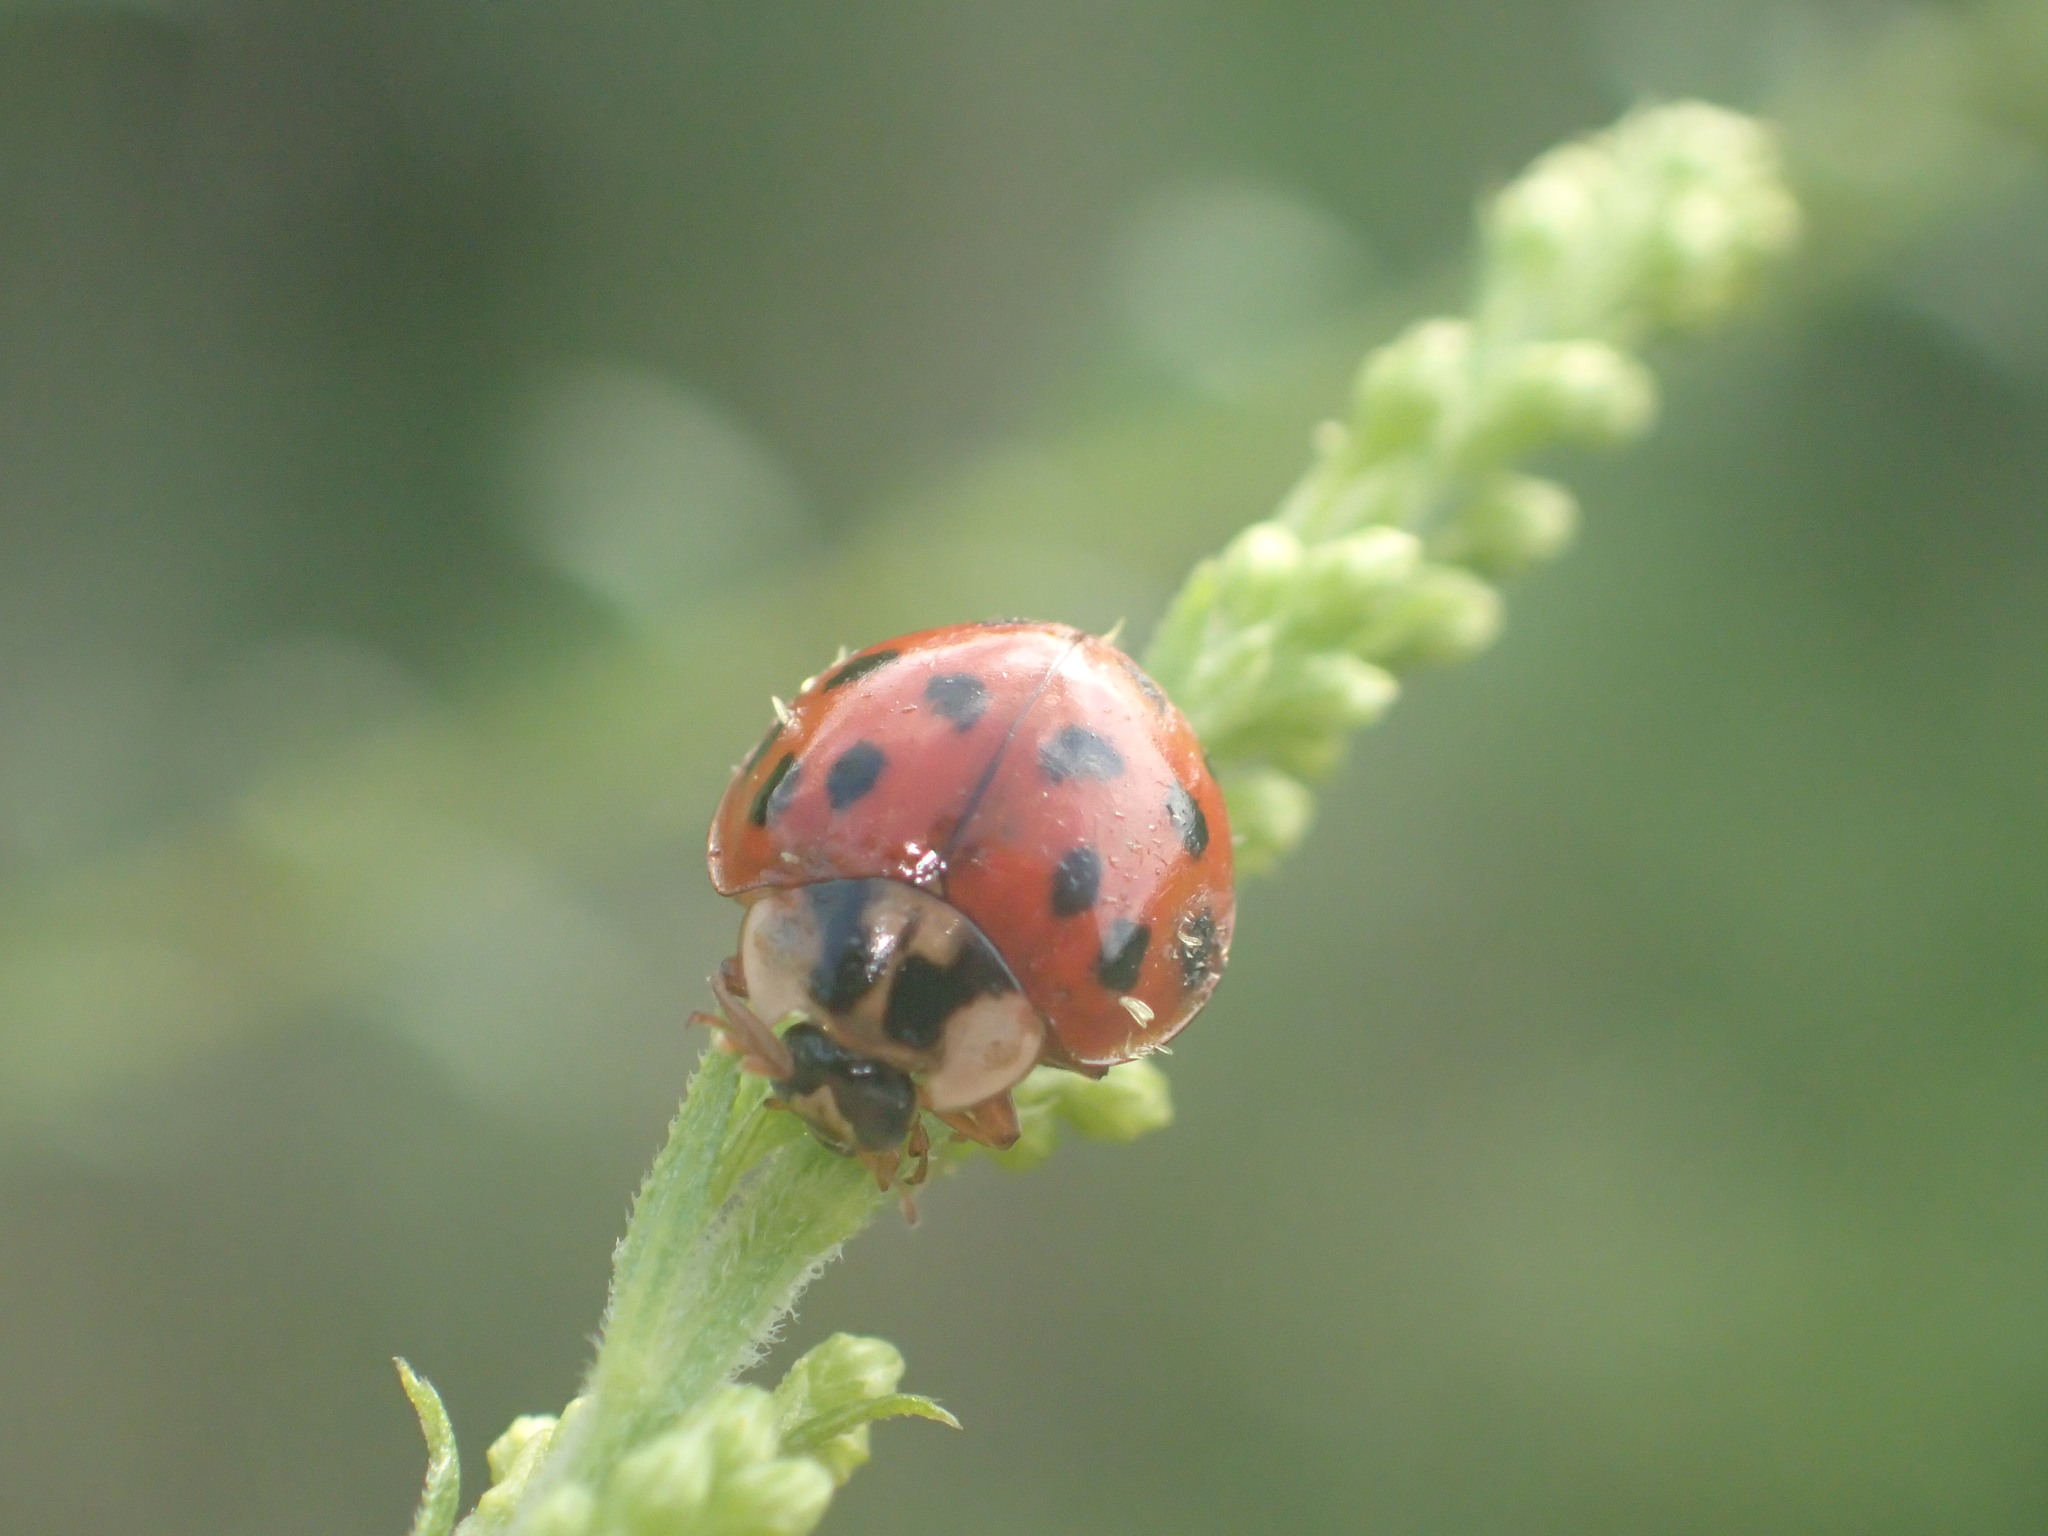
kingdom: Animalia
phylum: Arthropoda
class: Insecta
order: Coleoptera
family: Coccinellidae
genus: Harmonia
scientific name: Harmonia axyridis
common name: Harlequin ladybird
